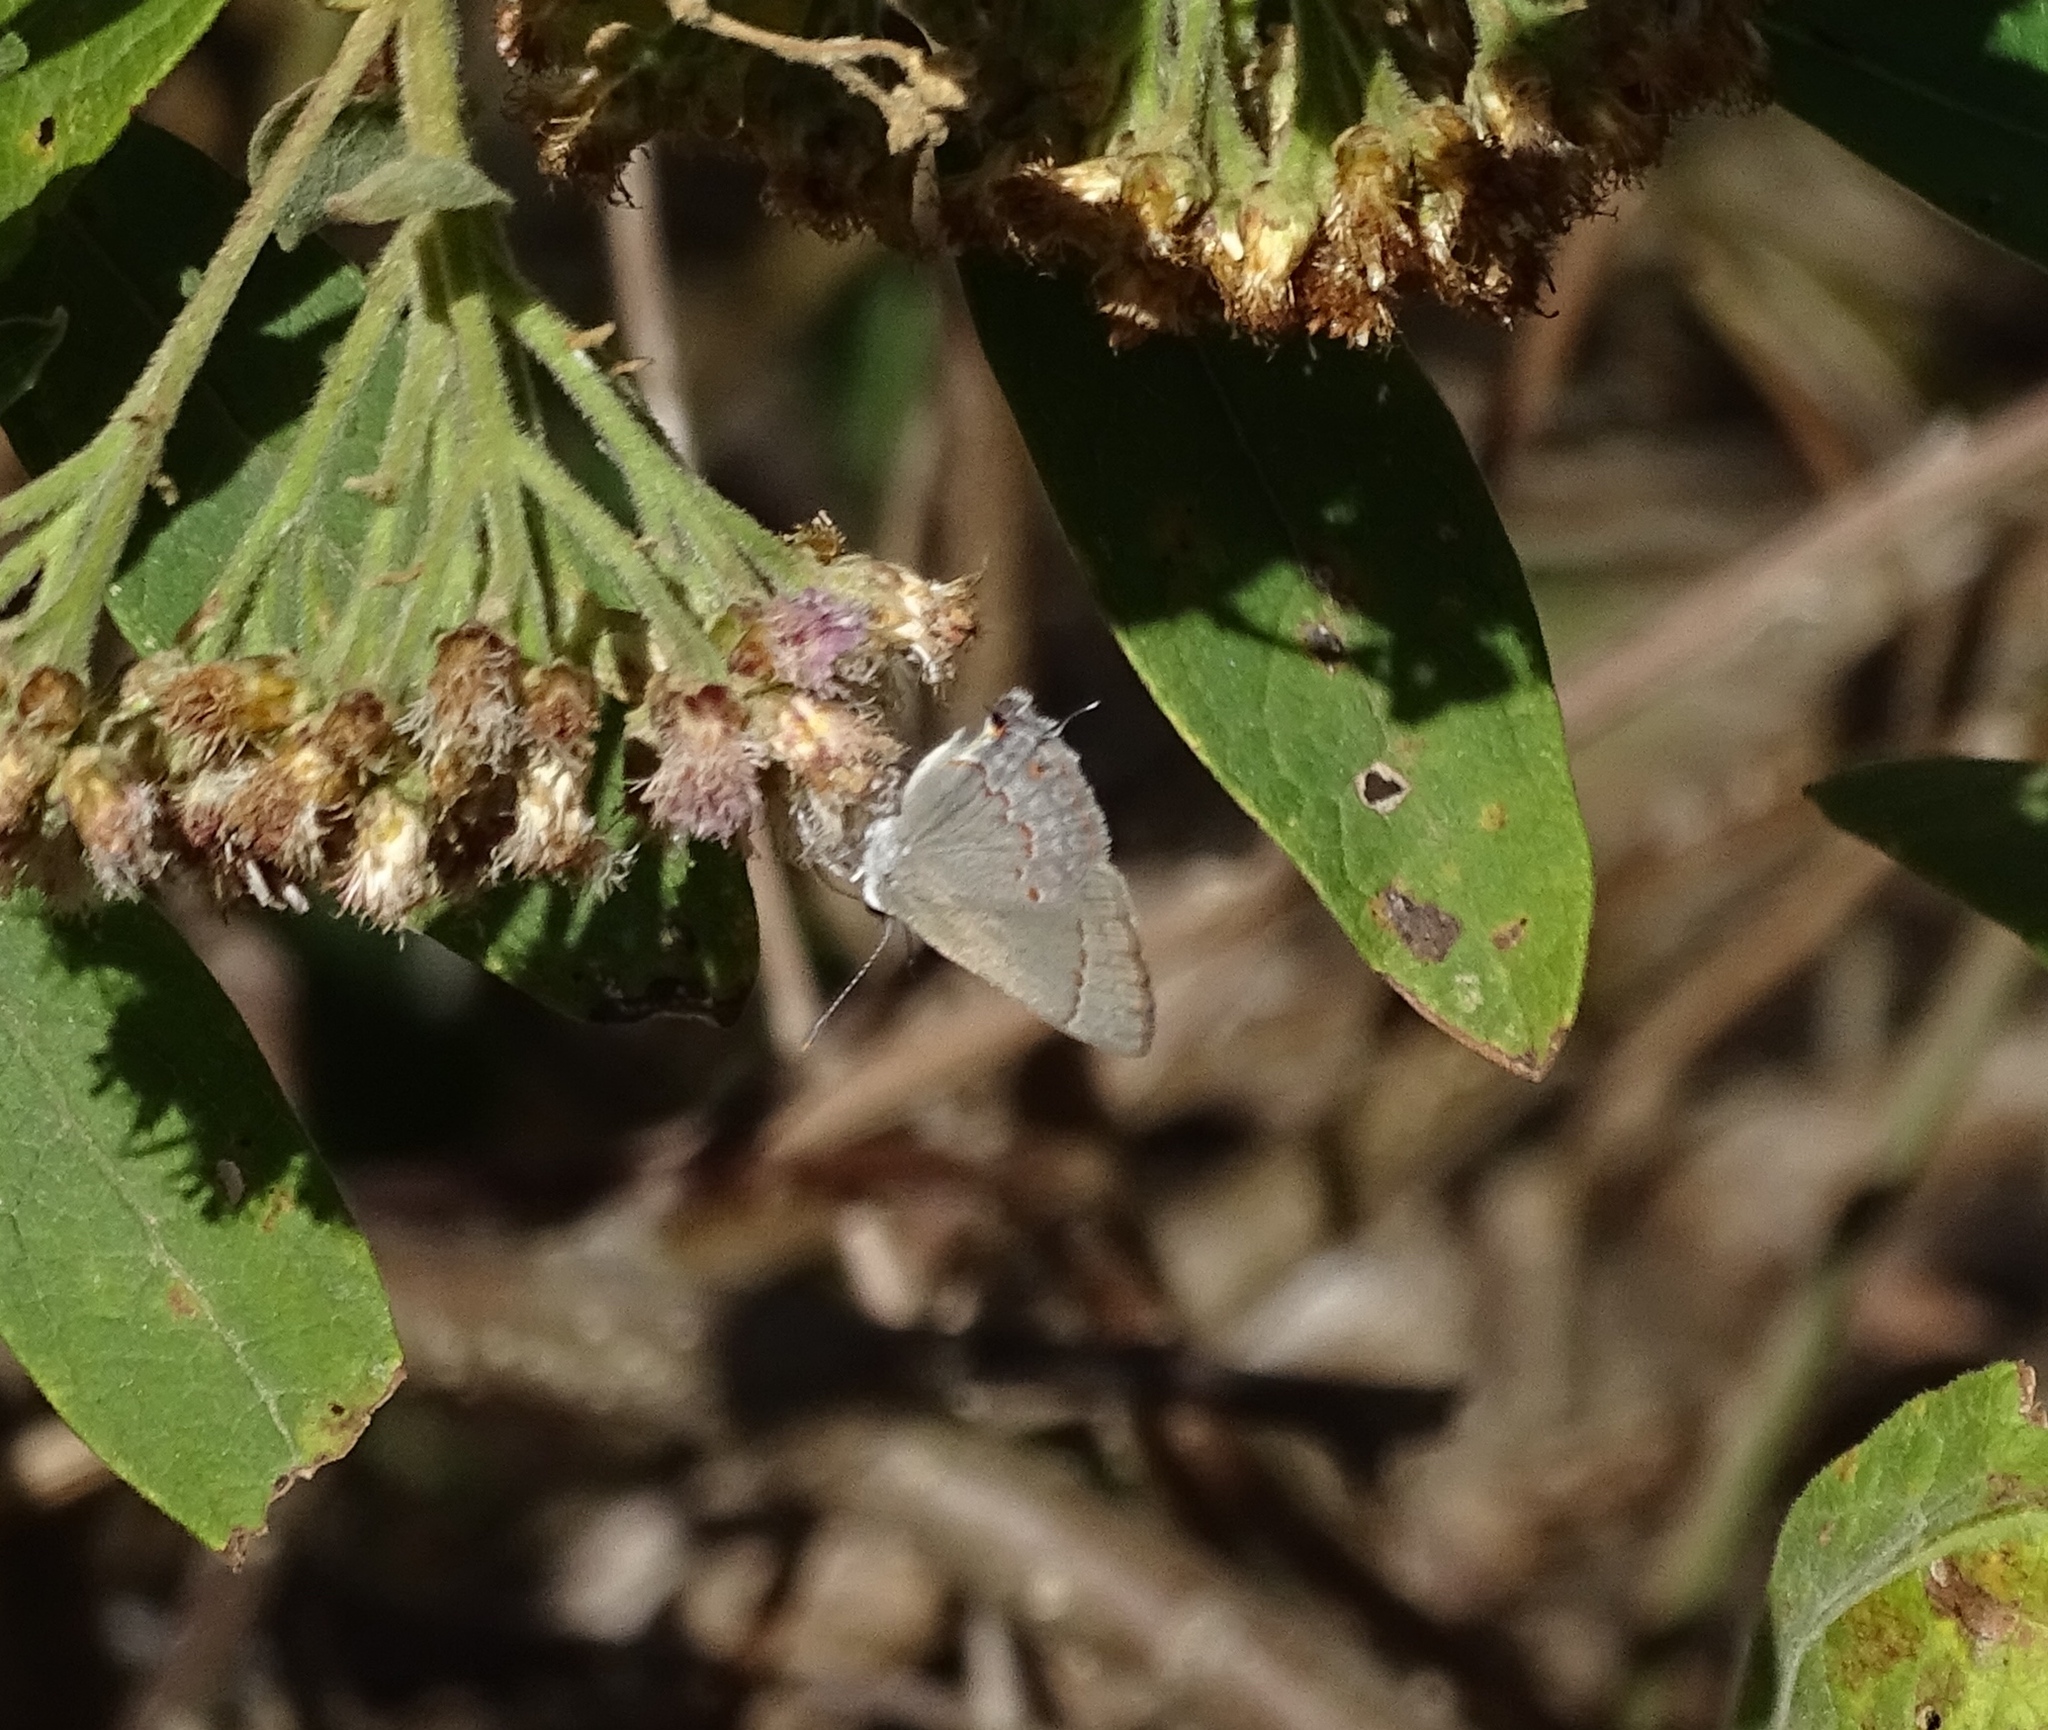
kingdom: Animalia
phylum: Arthropoda
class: Insecta
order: Lepidoptera
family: Lycaenidae
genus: Thecla
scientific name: Thecla rufofusca
